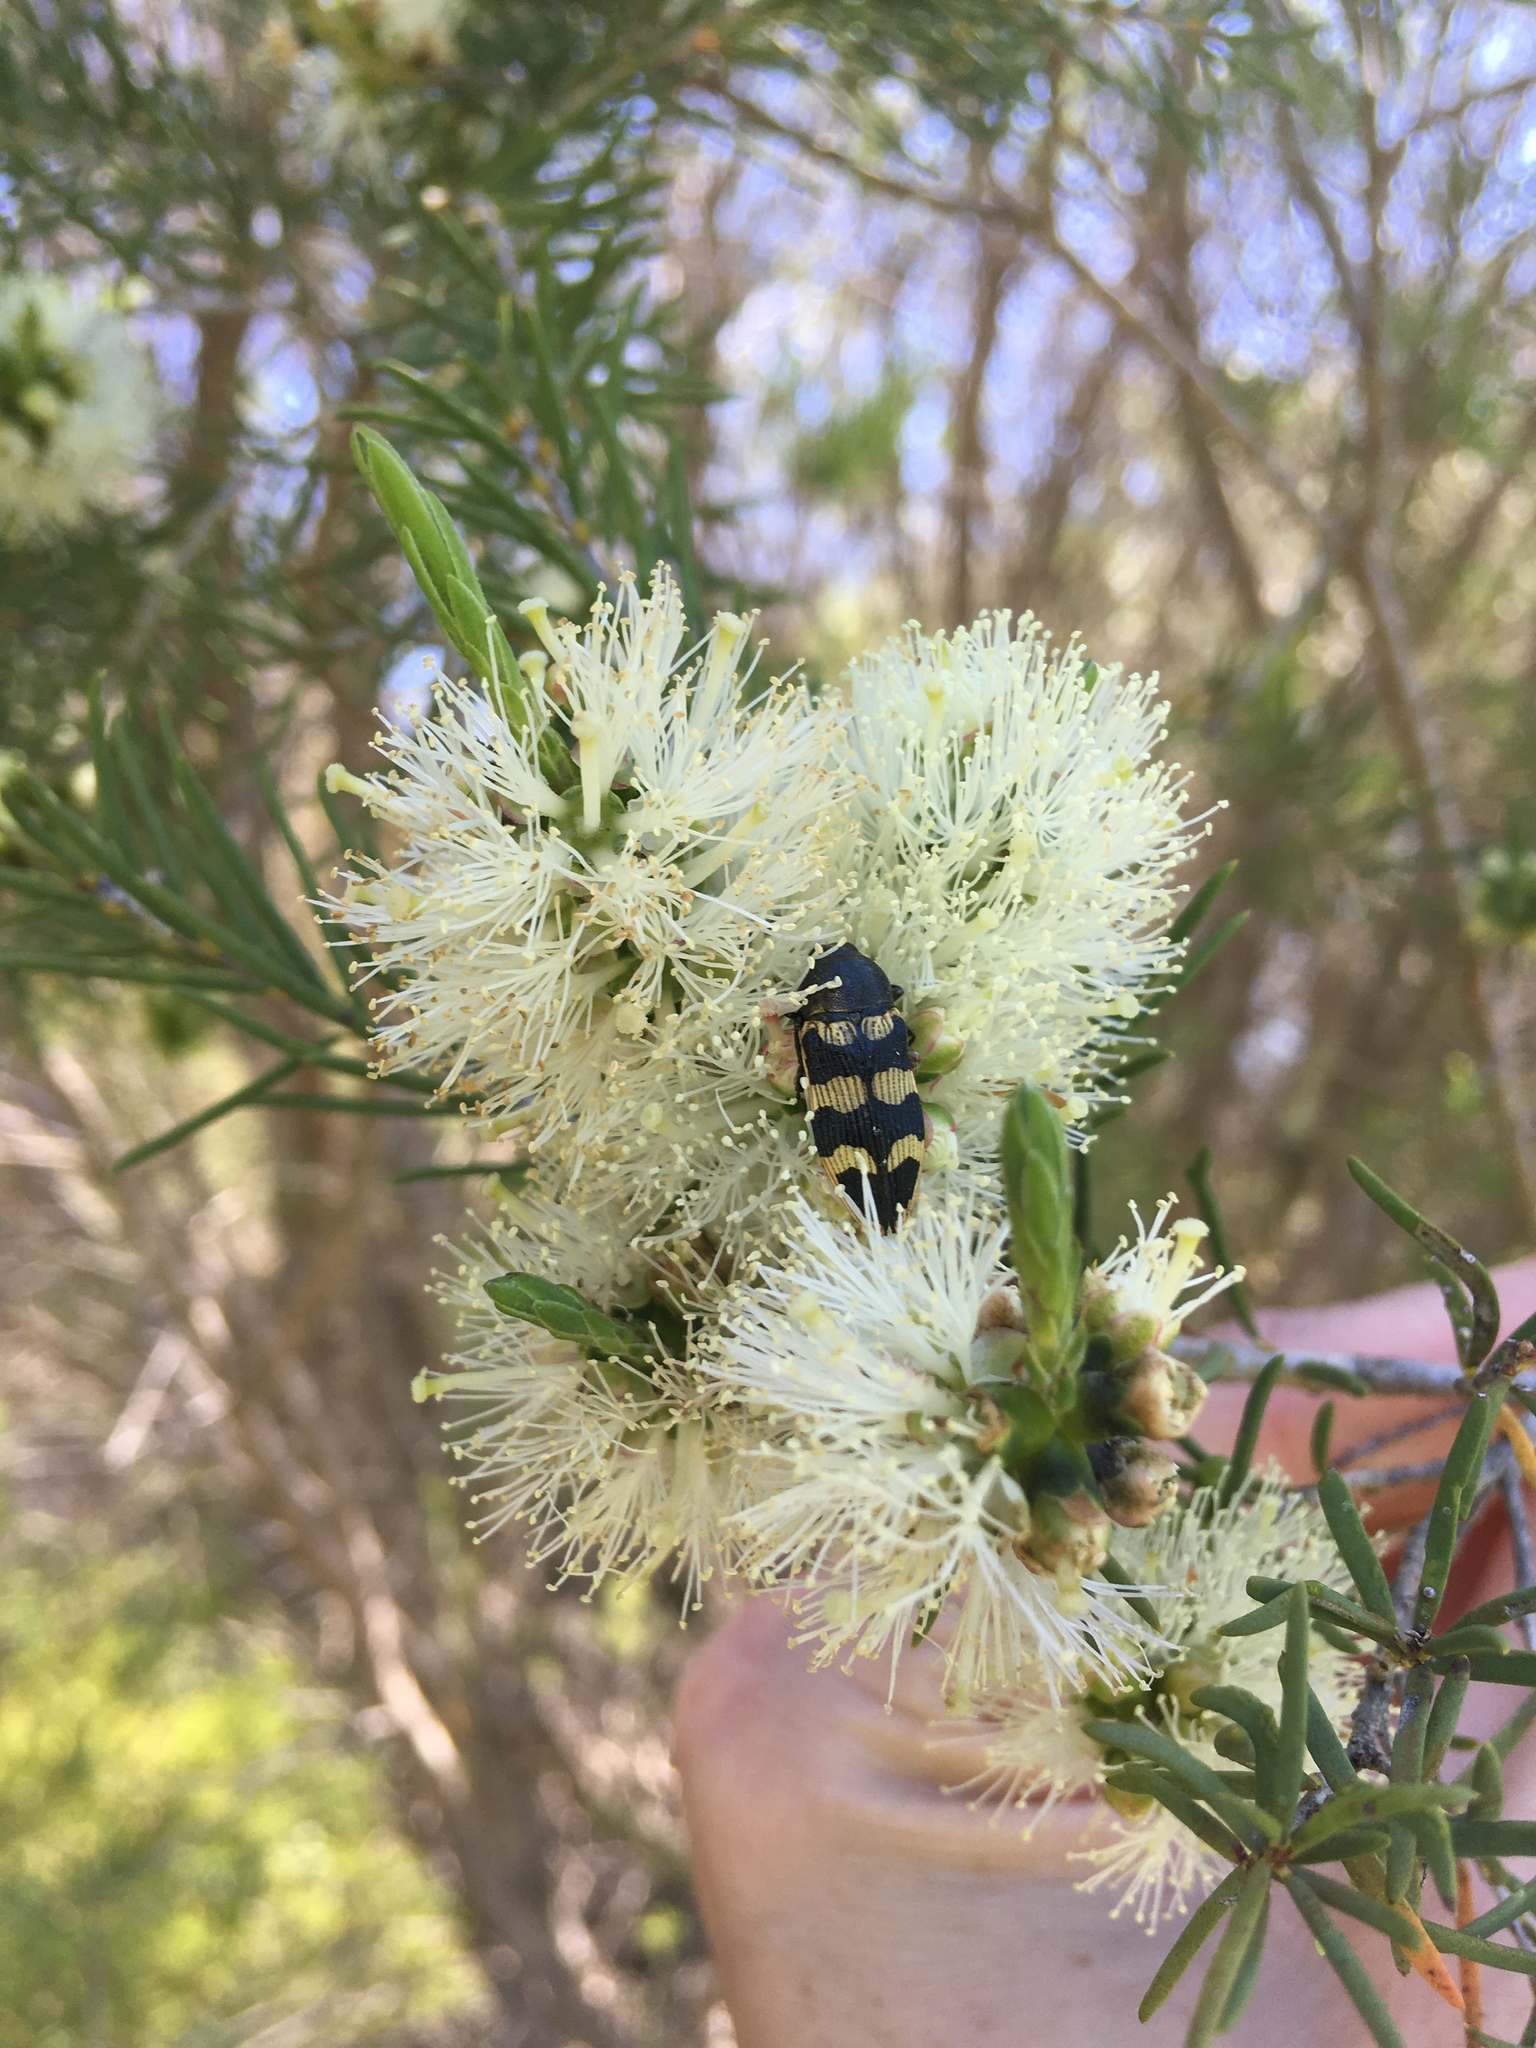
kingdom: Animalia
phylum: Arthropoda
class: Insecta
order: Coleoptera
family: Buprestidae
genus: Castiarina
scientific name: Castiarina sagittaria
